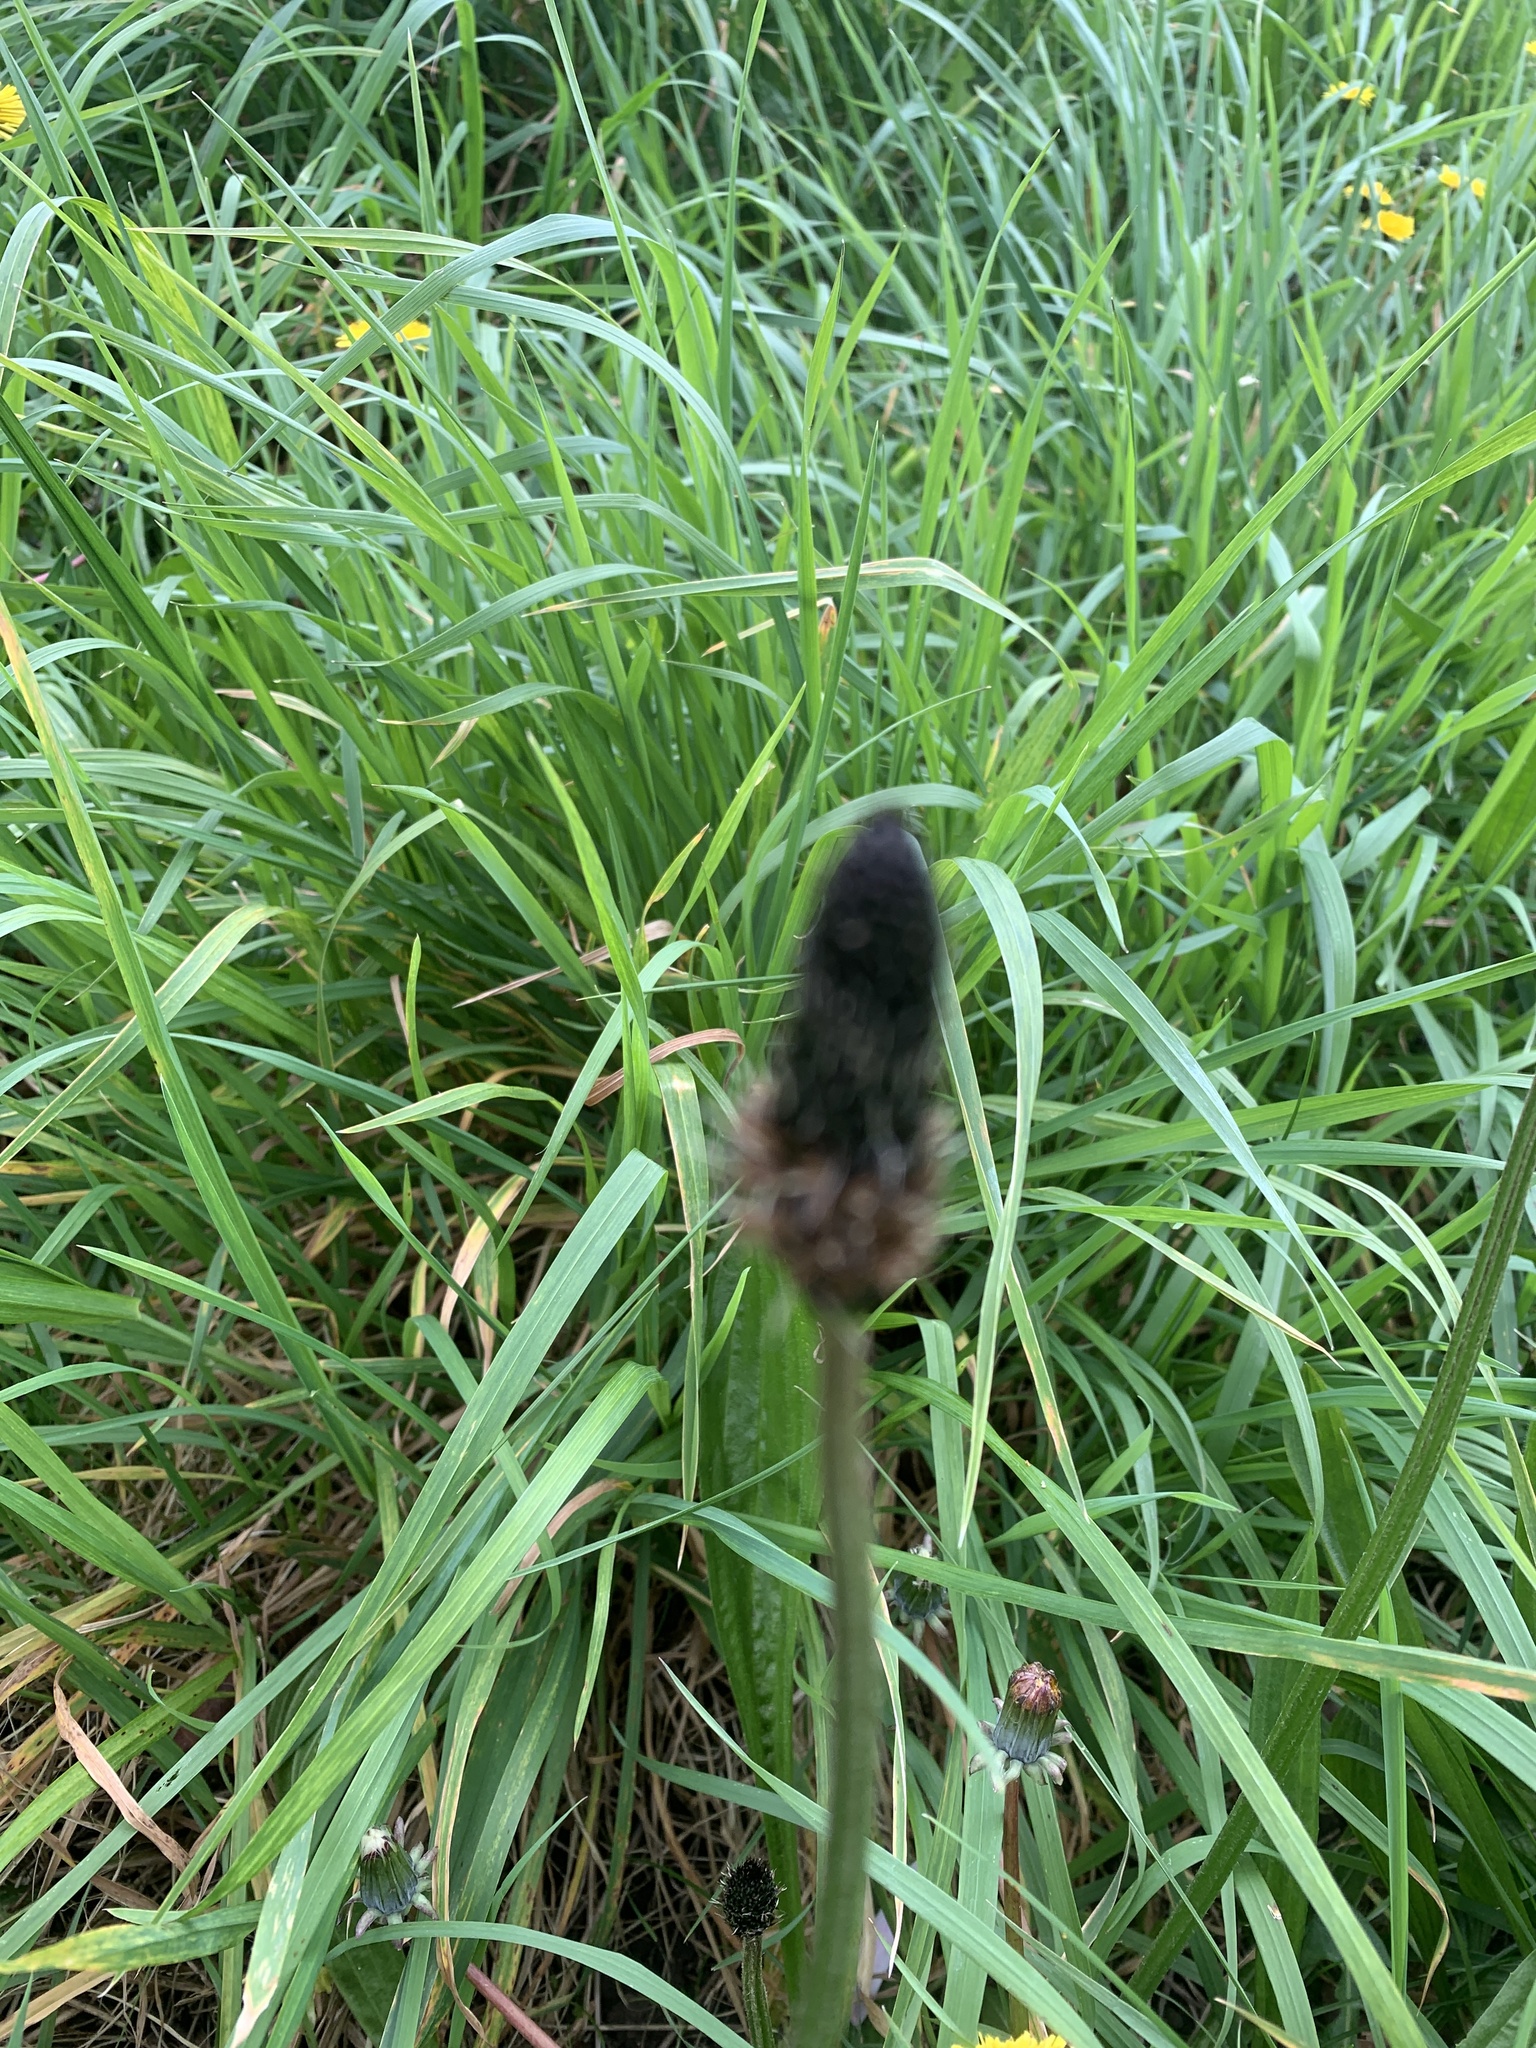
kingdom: Plantae
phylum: Tracheophyta
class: Magnoliopsida
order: Lamiales
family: Plantaginaceae
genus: Plantago
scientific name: Plantago lanceolata
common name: Ribwort plantain
